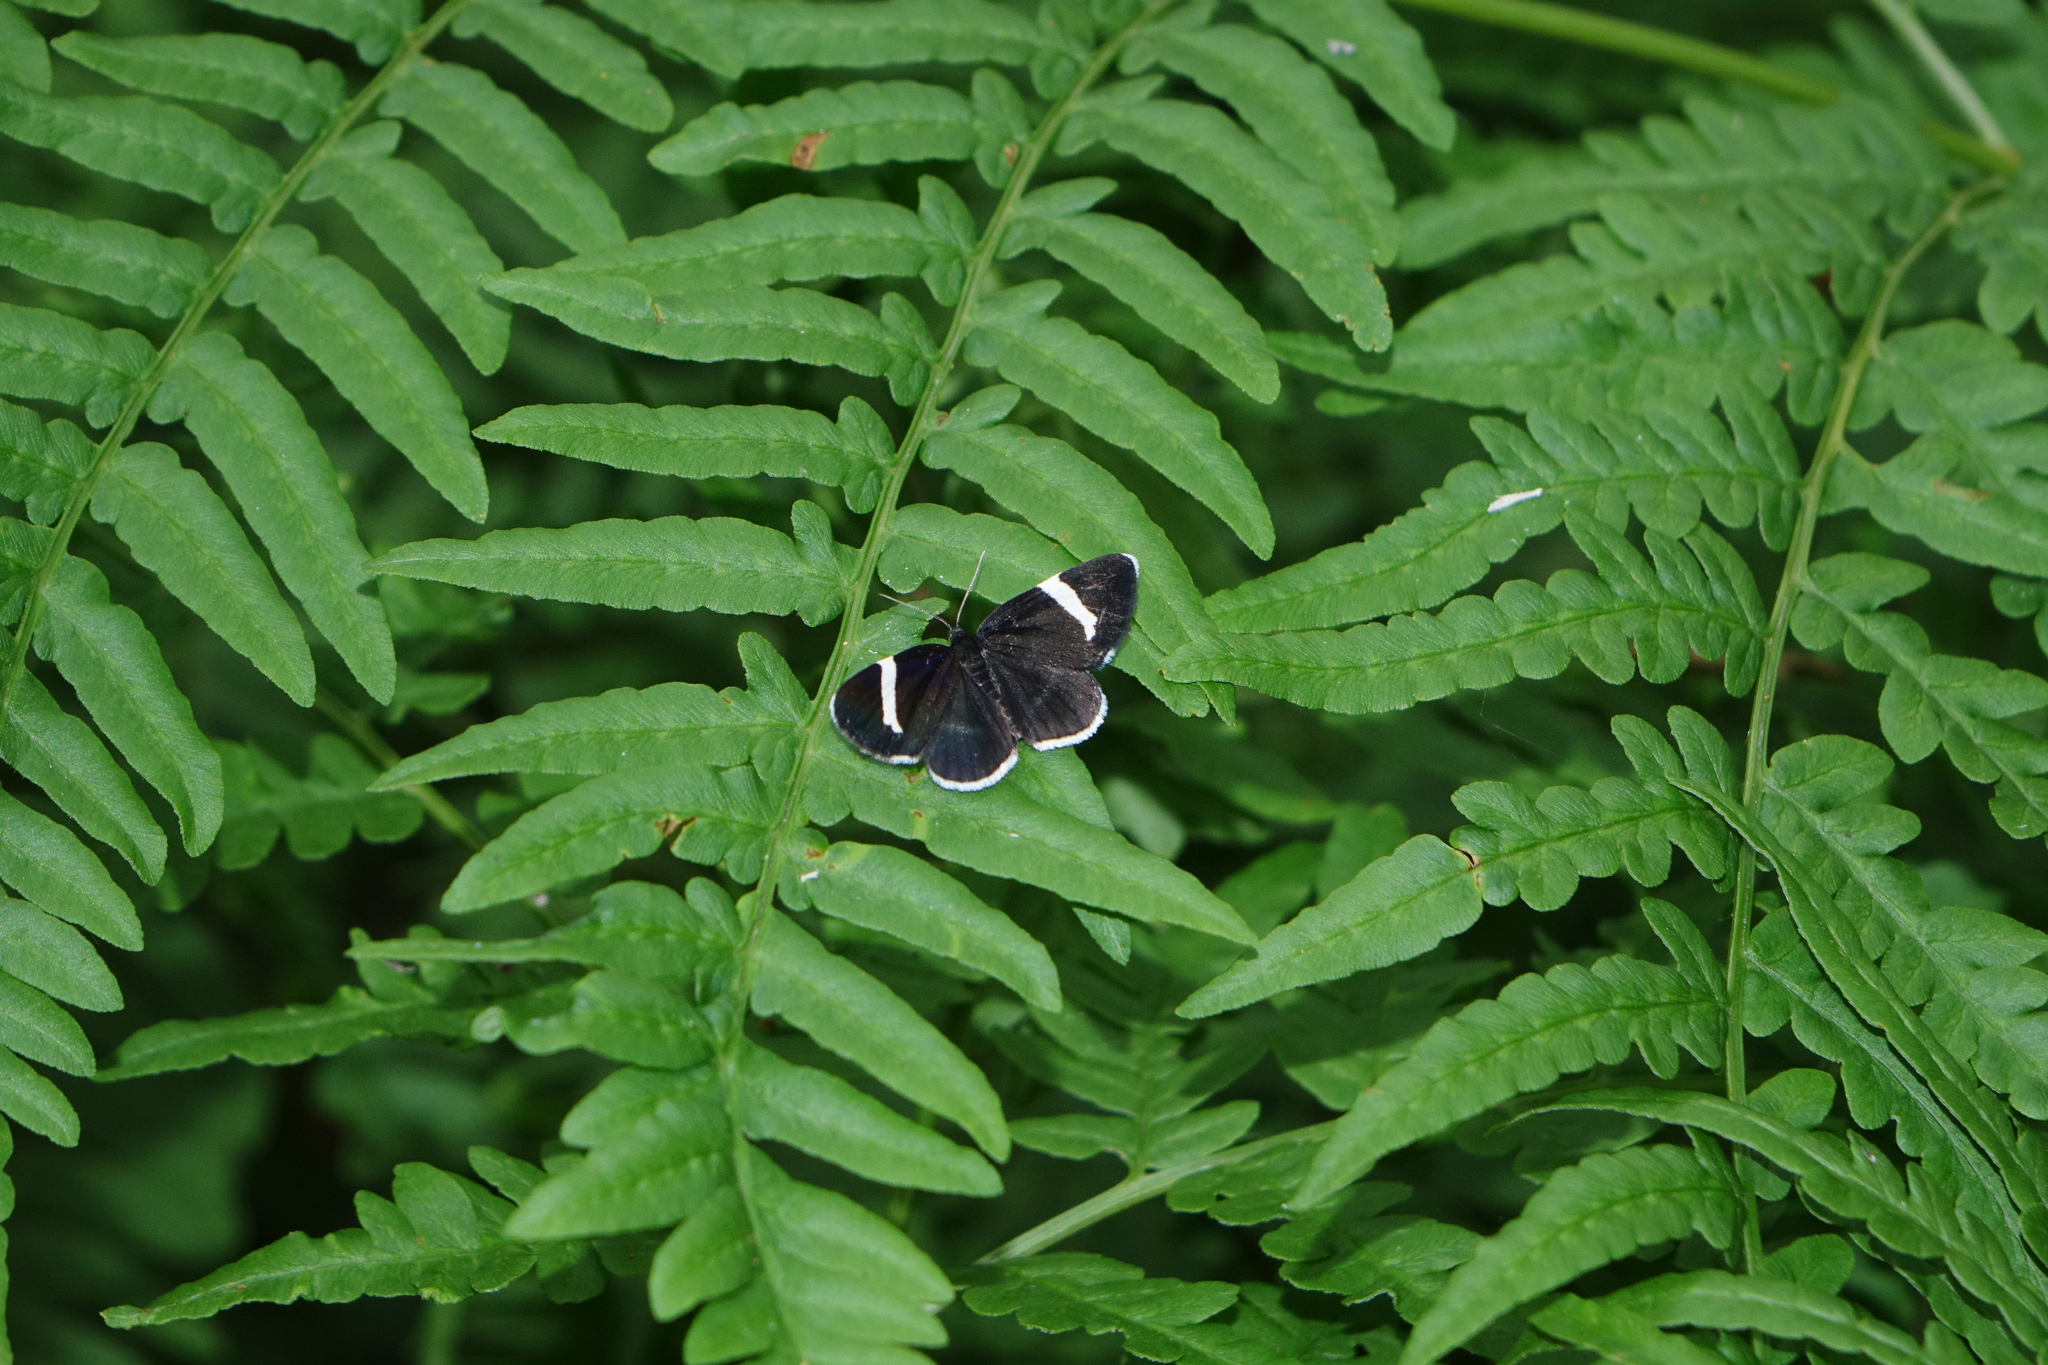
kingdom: Plantae
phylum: Tracheophyta
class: Polypodiopsida
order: Polypodiales
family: Dennstaedtiaceae
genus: Pteridium
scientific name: Pteridium aquilinum
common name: Bracken
